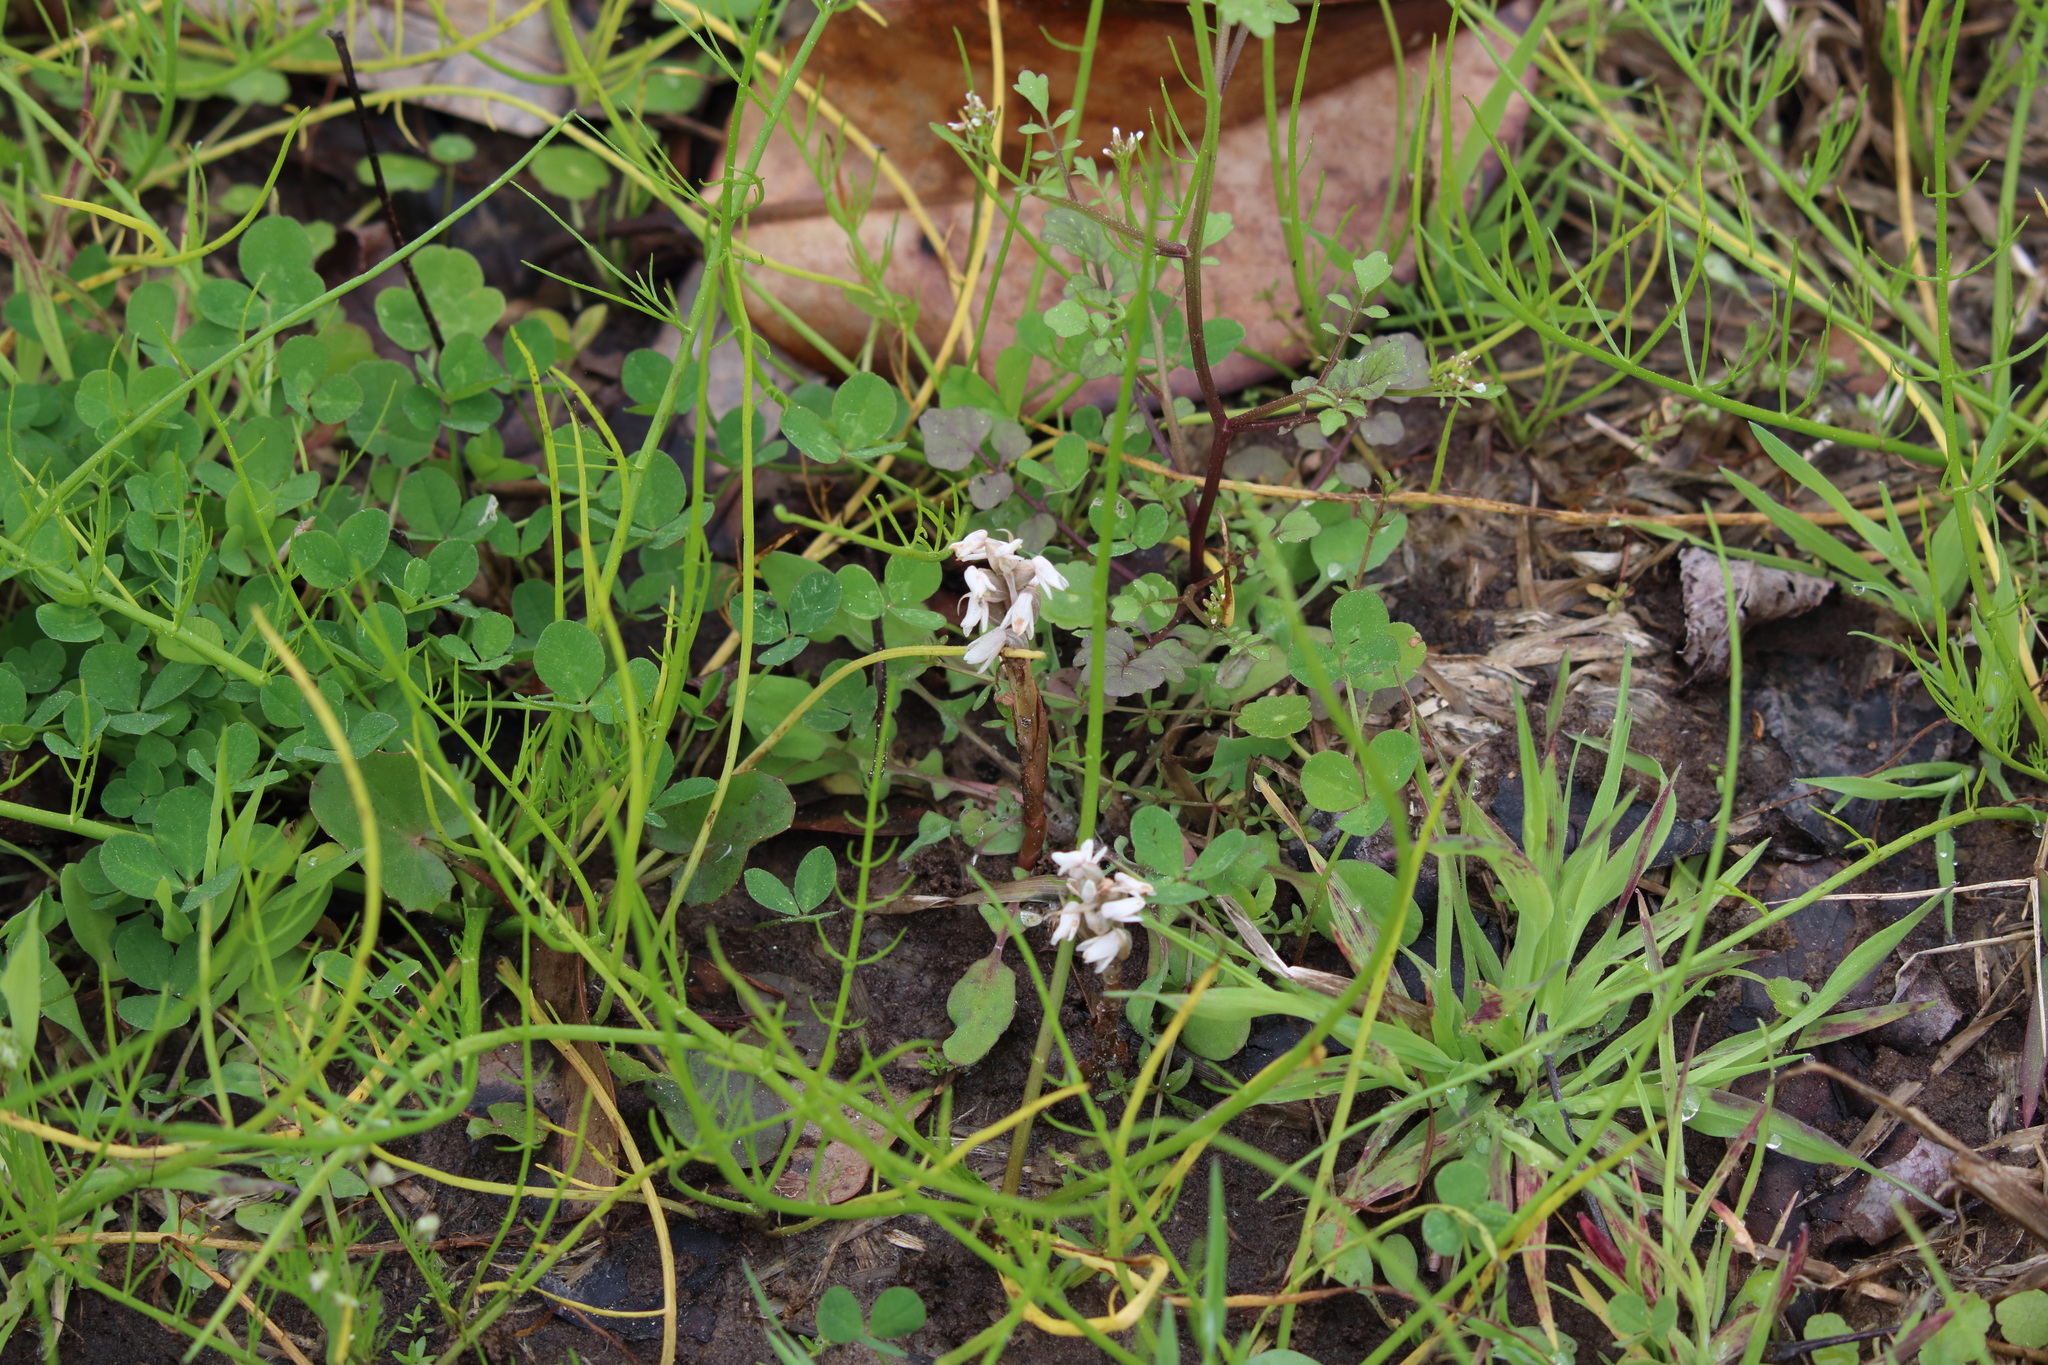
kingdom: Plantae
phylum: Tracheophyta
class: Liliopsida
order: Asparagales
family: Orchidaceae
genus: Zeuxine
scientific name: Zeuxine strateumatica
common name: Soldier's orchid
